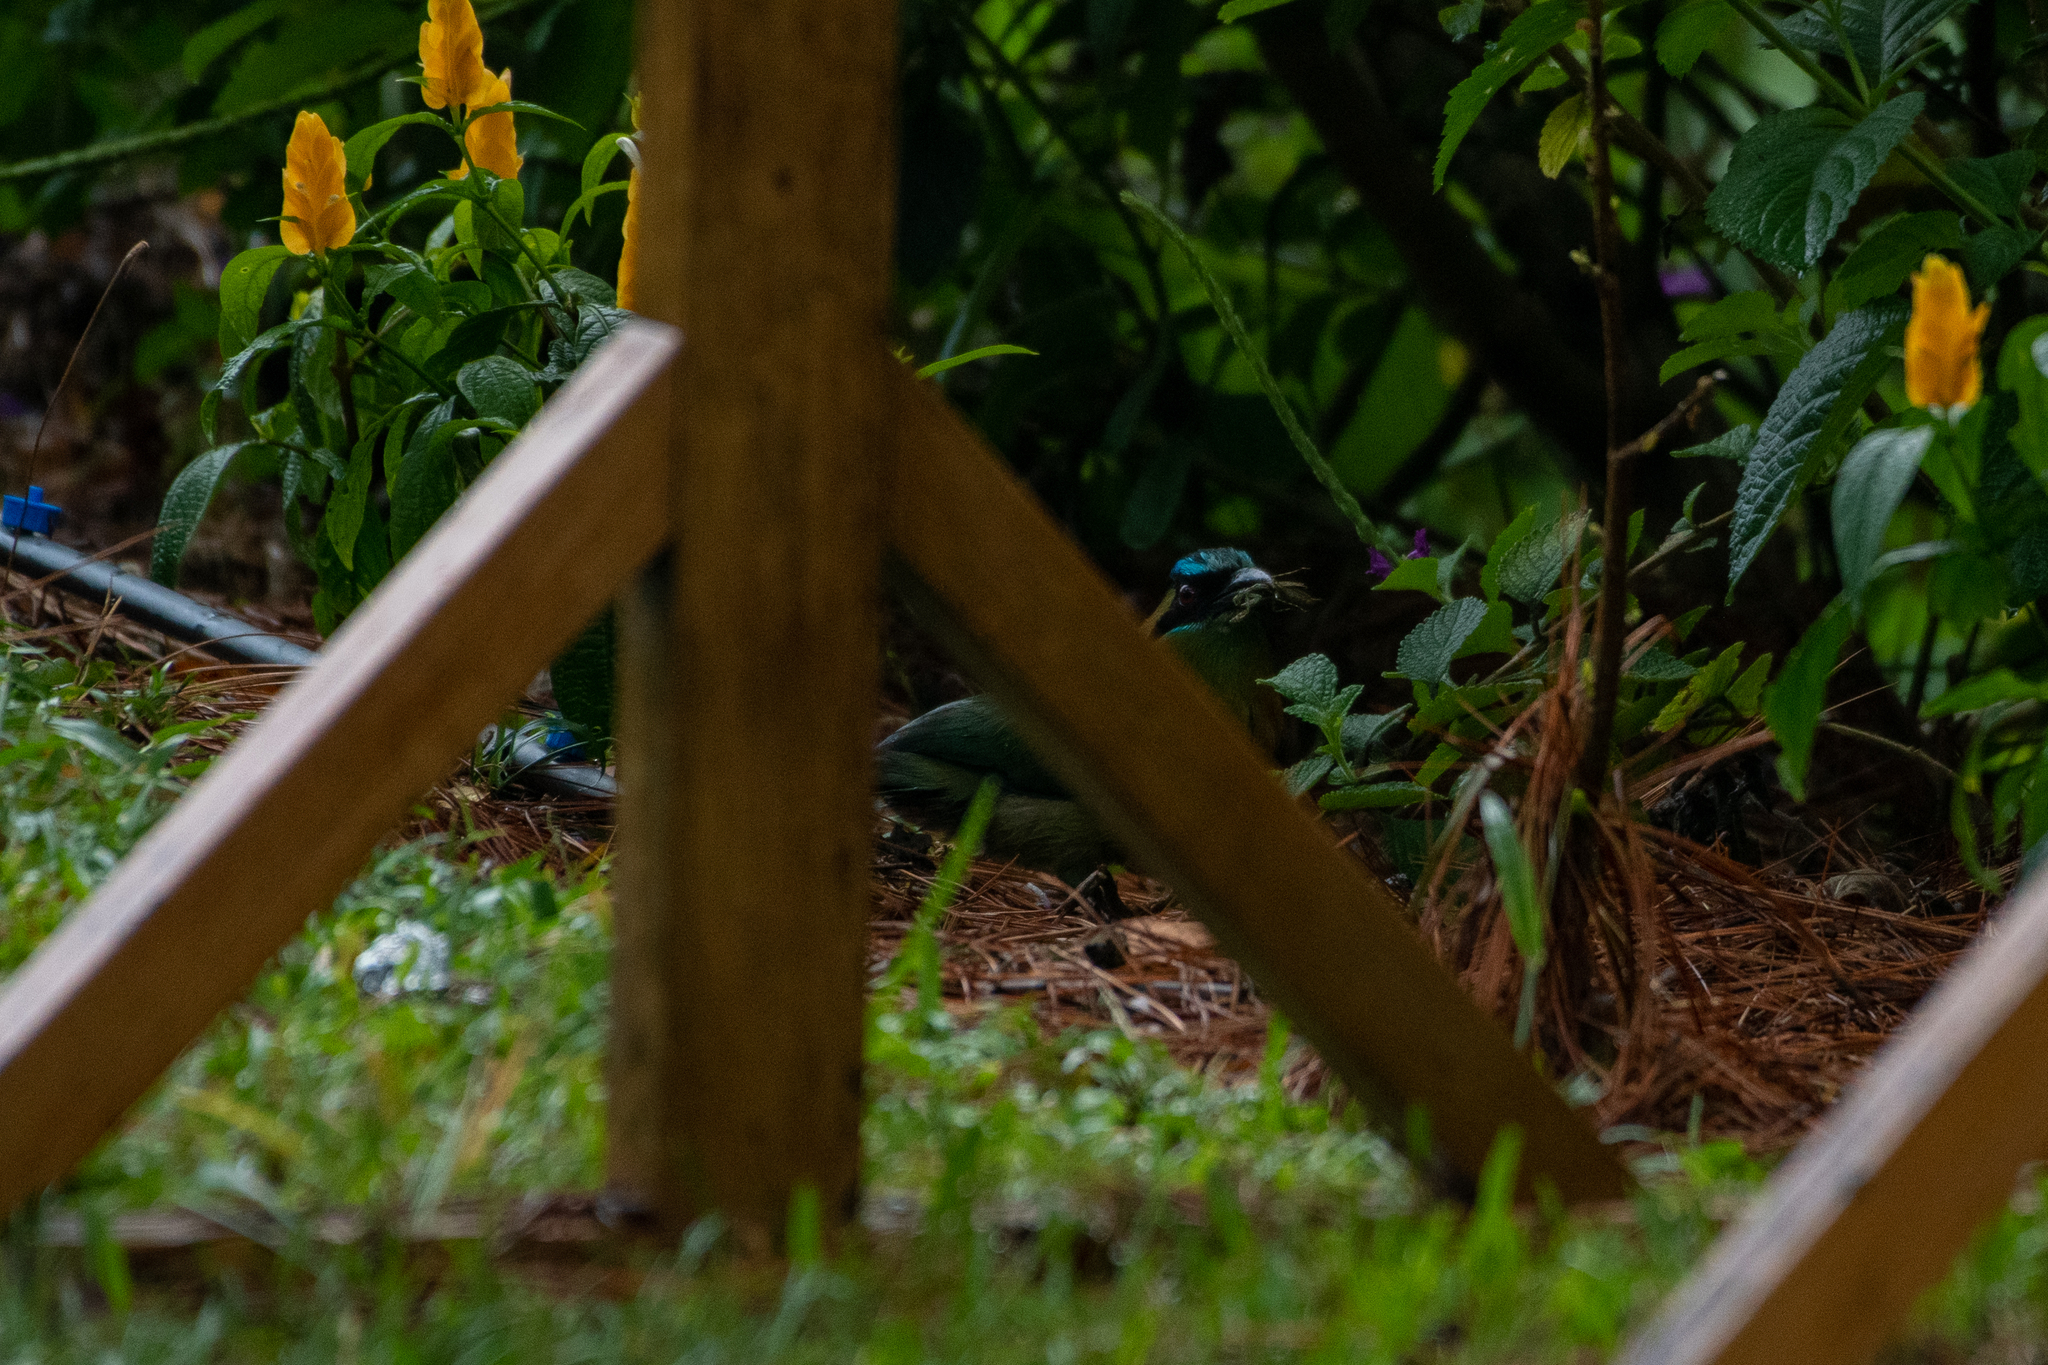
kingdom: Animalia
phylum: Chordata
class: Aves
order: Coraciiformes
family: Momotidae
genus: Momotus
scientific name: Momotus lessonii
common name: Lesson's motmot
